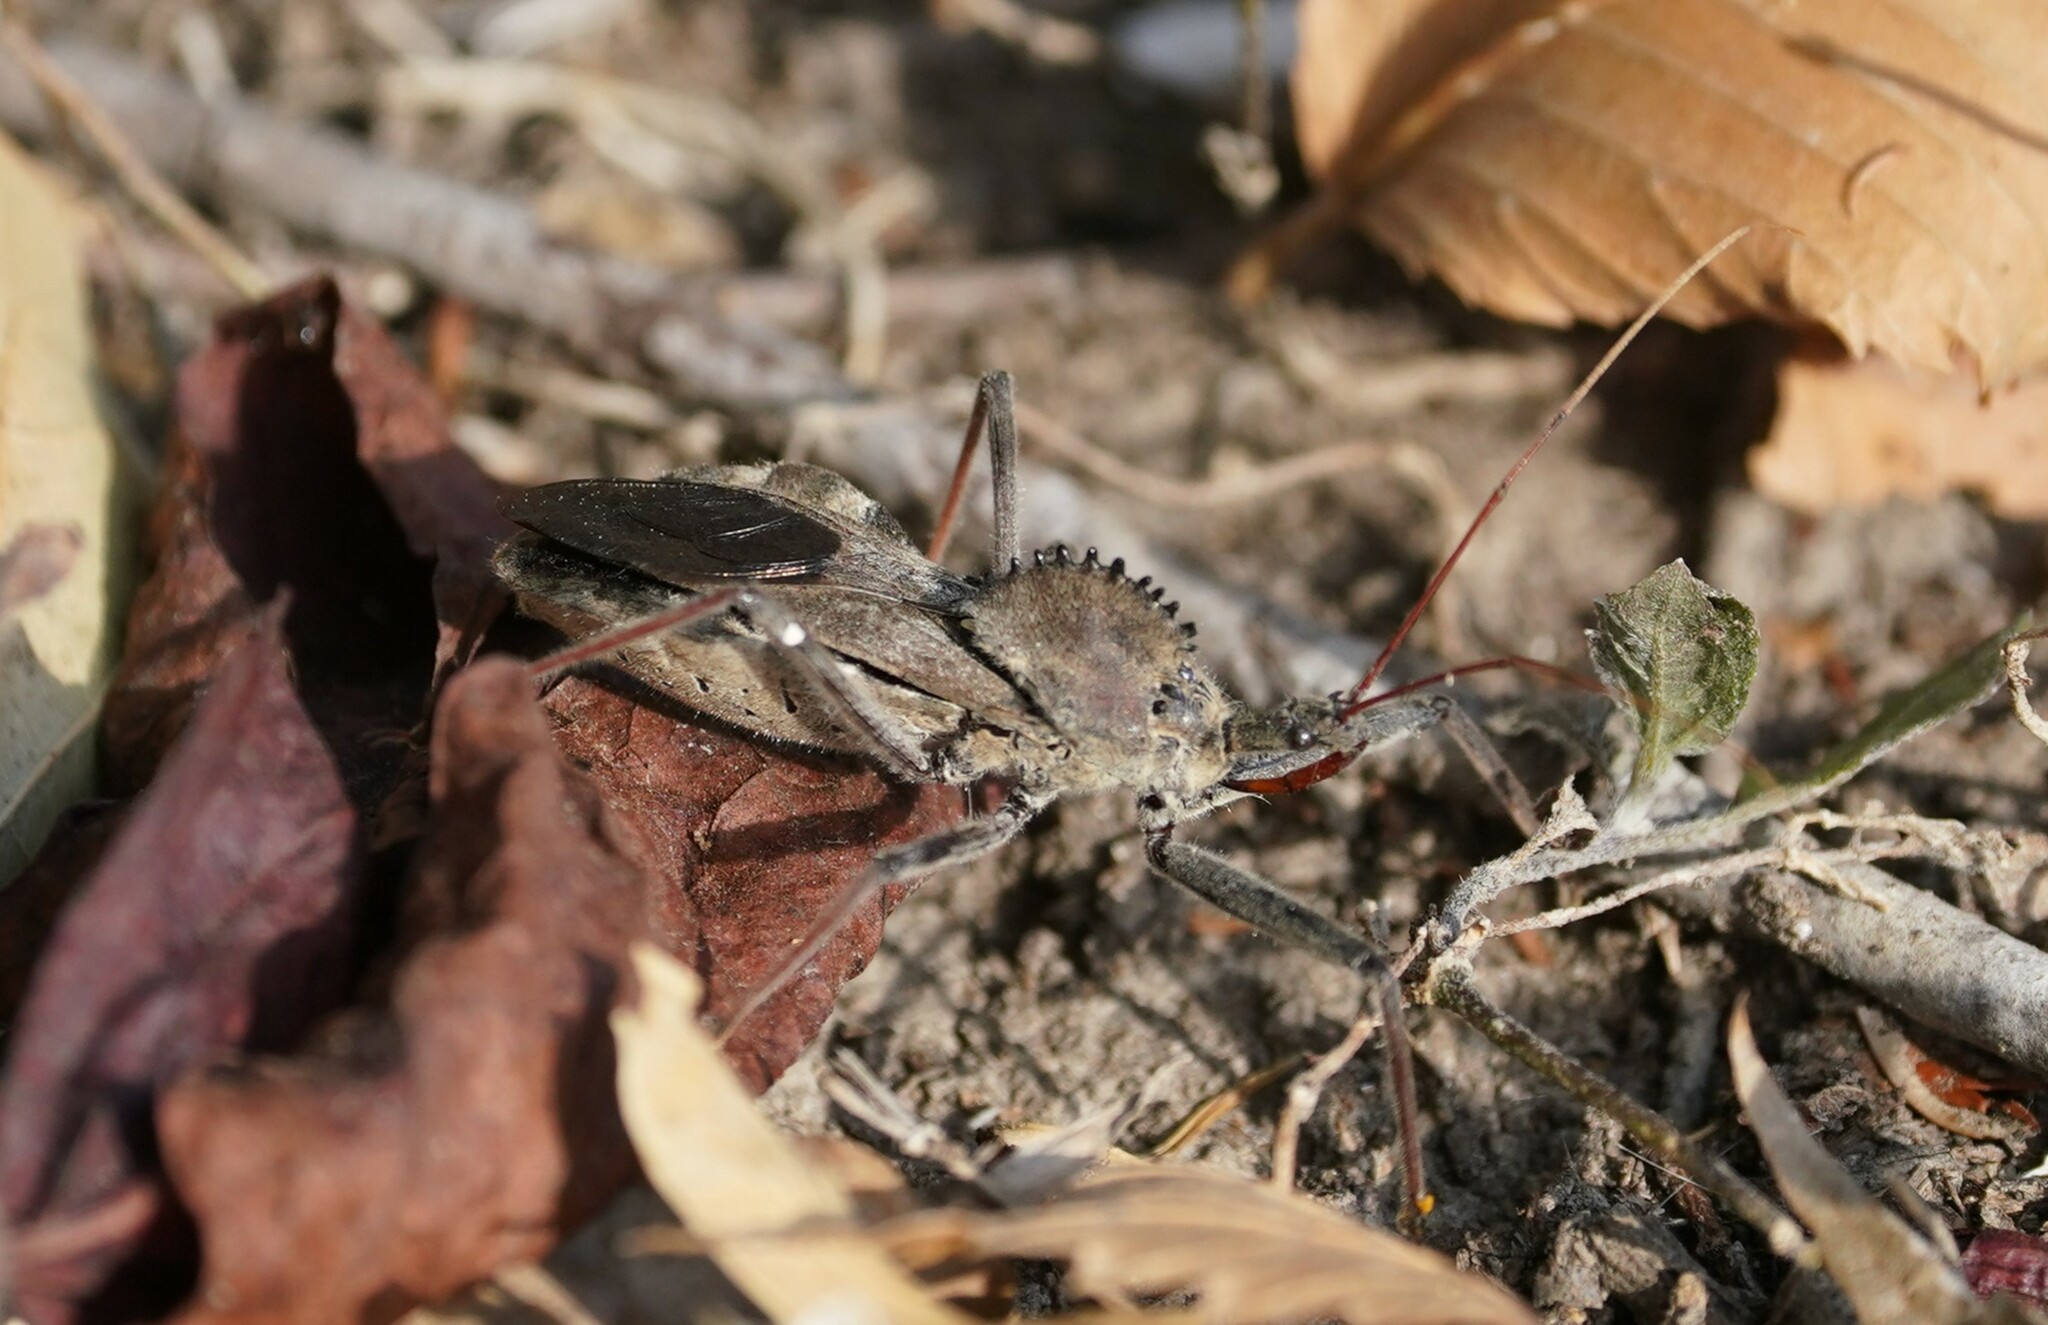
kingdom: Animalia
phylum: Arthropoda
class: Insecta
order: Hemiptera
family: Reduviidae
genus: Arilus
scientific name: Arilus cristatus
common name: North american wheel bug
